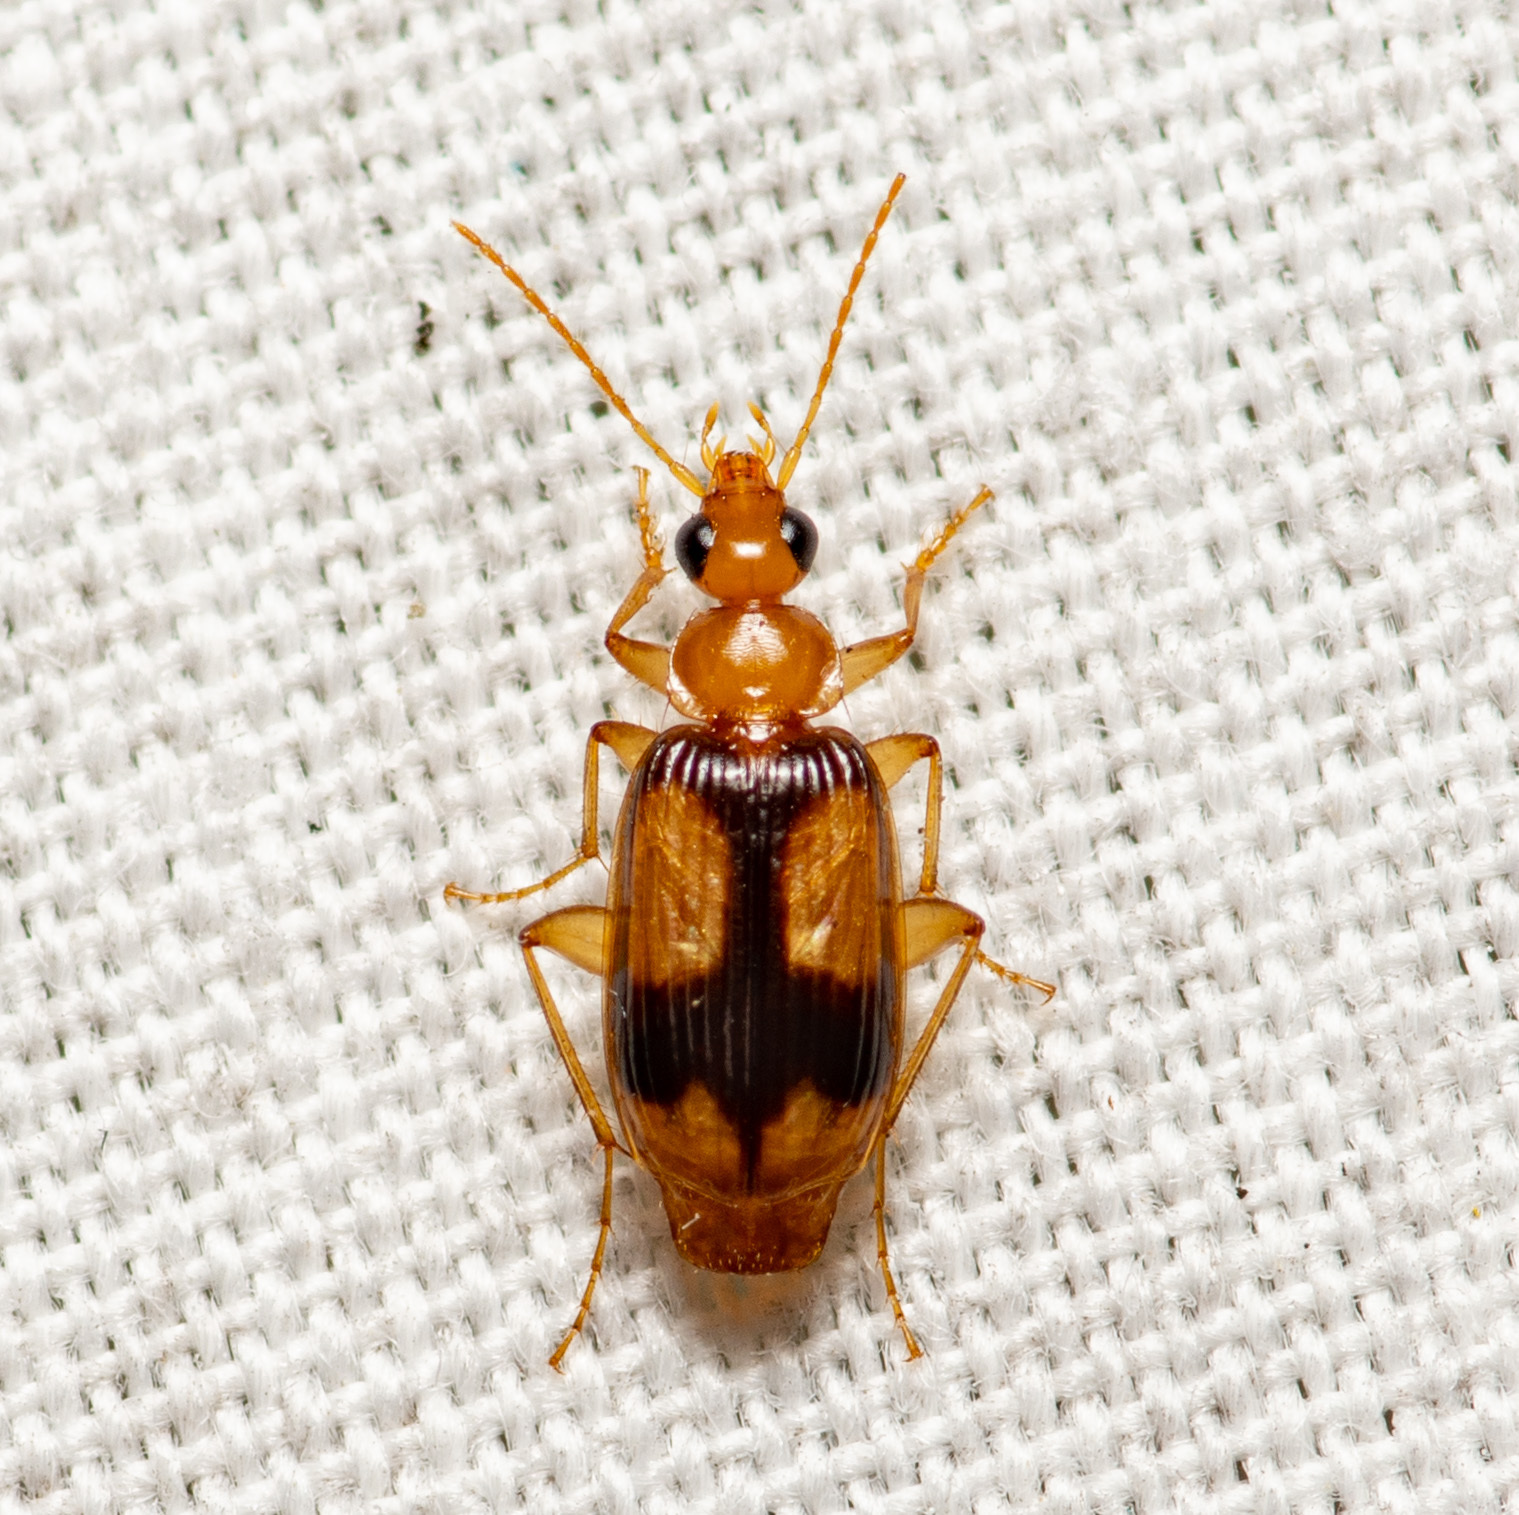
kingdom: Animalia
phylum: Arthropoda
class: Insecta
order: Coleoptera
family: Carabidae
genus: Nemotarsus
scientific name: Nemotarsus elegans
